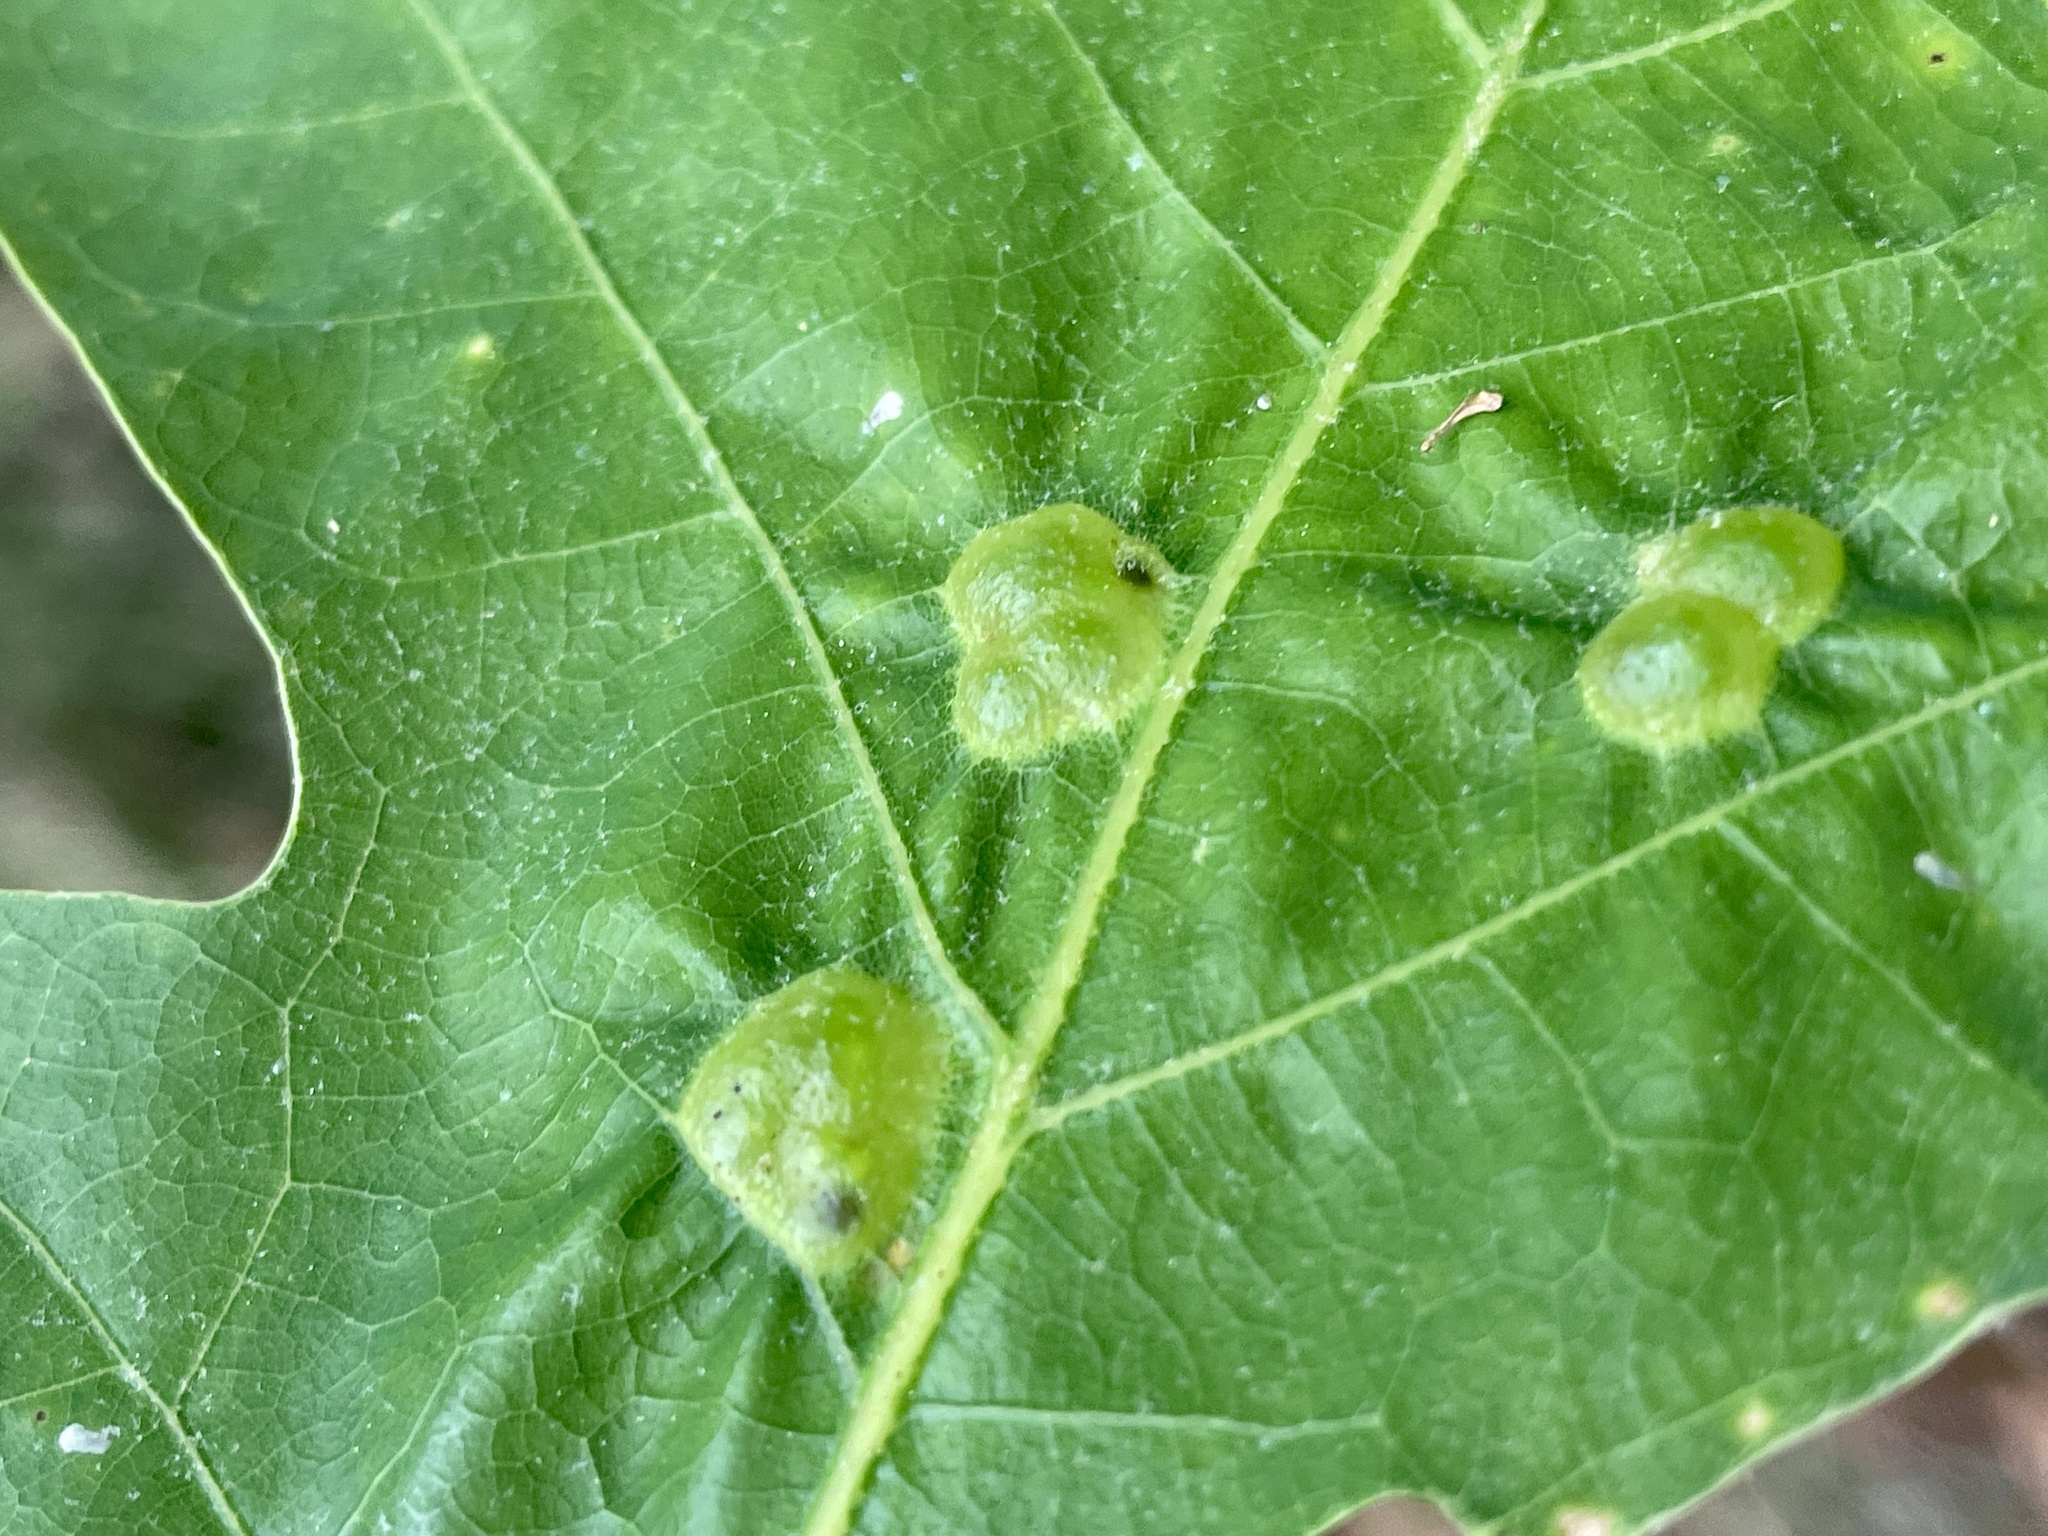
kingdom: Animalia
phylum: Arthropoda
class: Insecta
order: Hymenoptera
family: Cynipidae
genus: Neuroterus
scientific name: Neuroterus quercusirregularis
